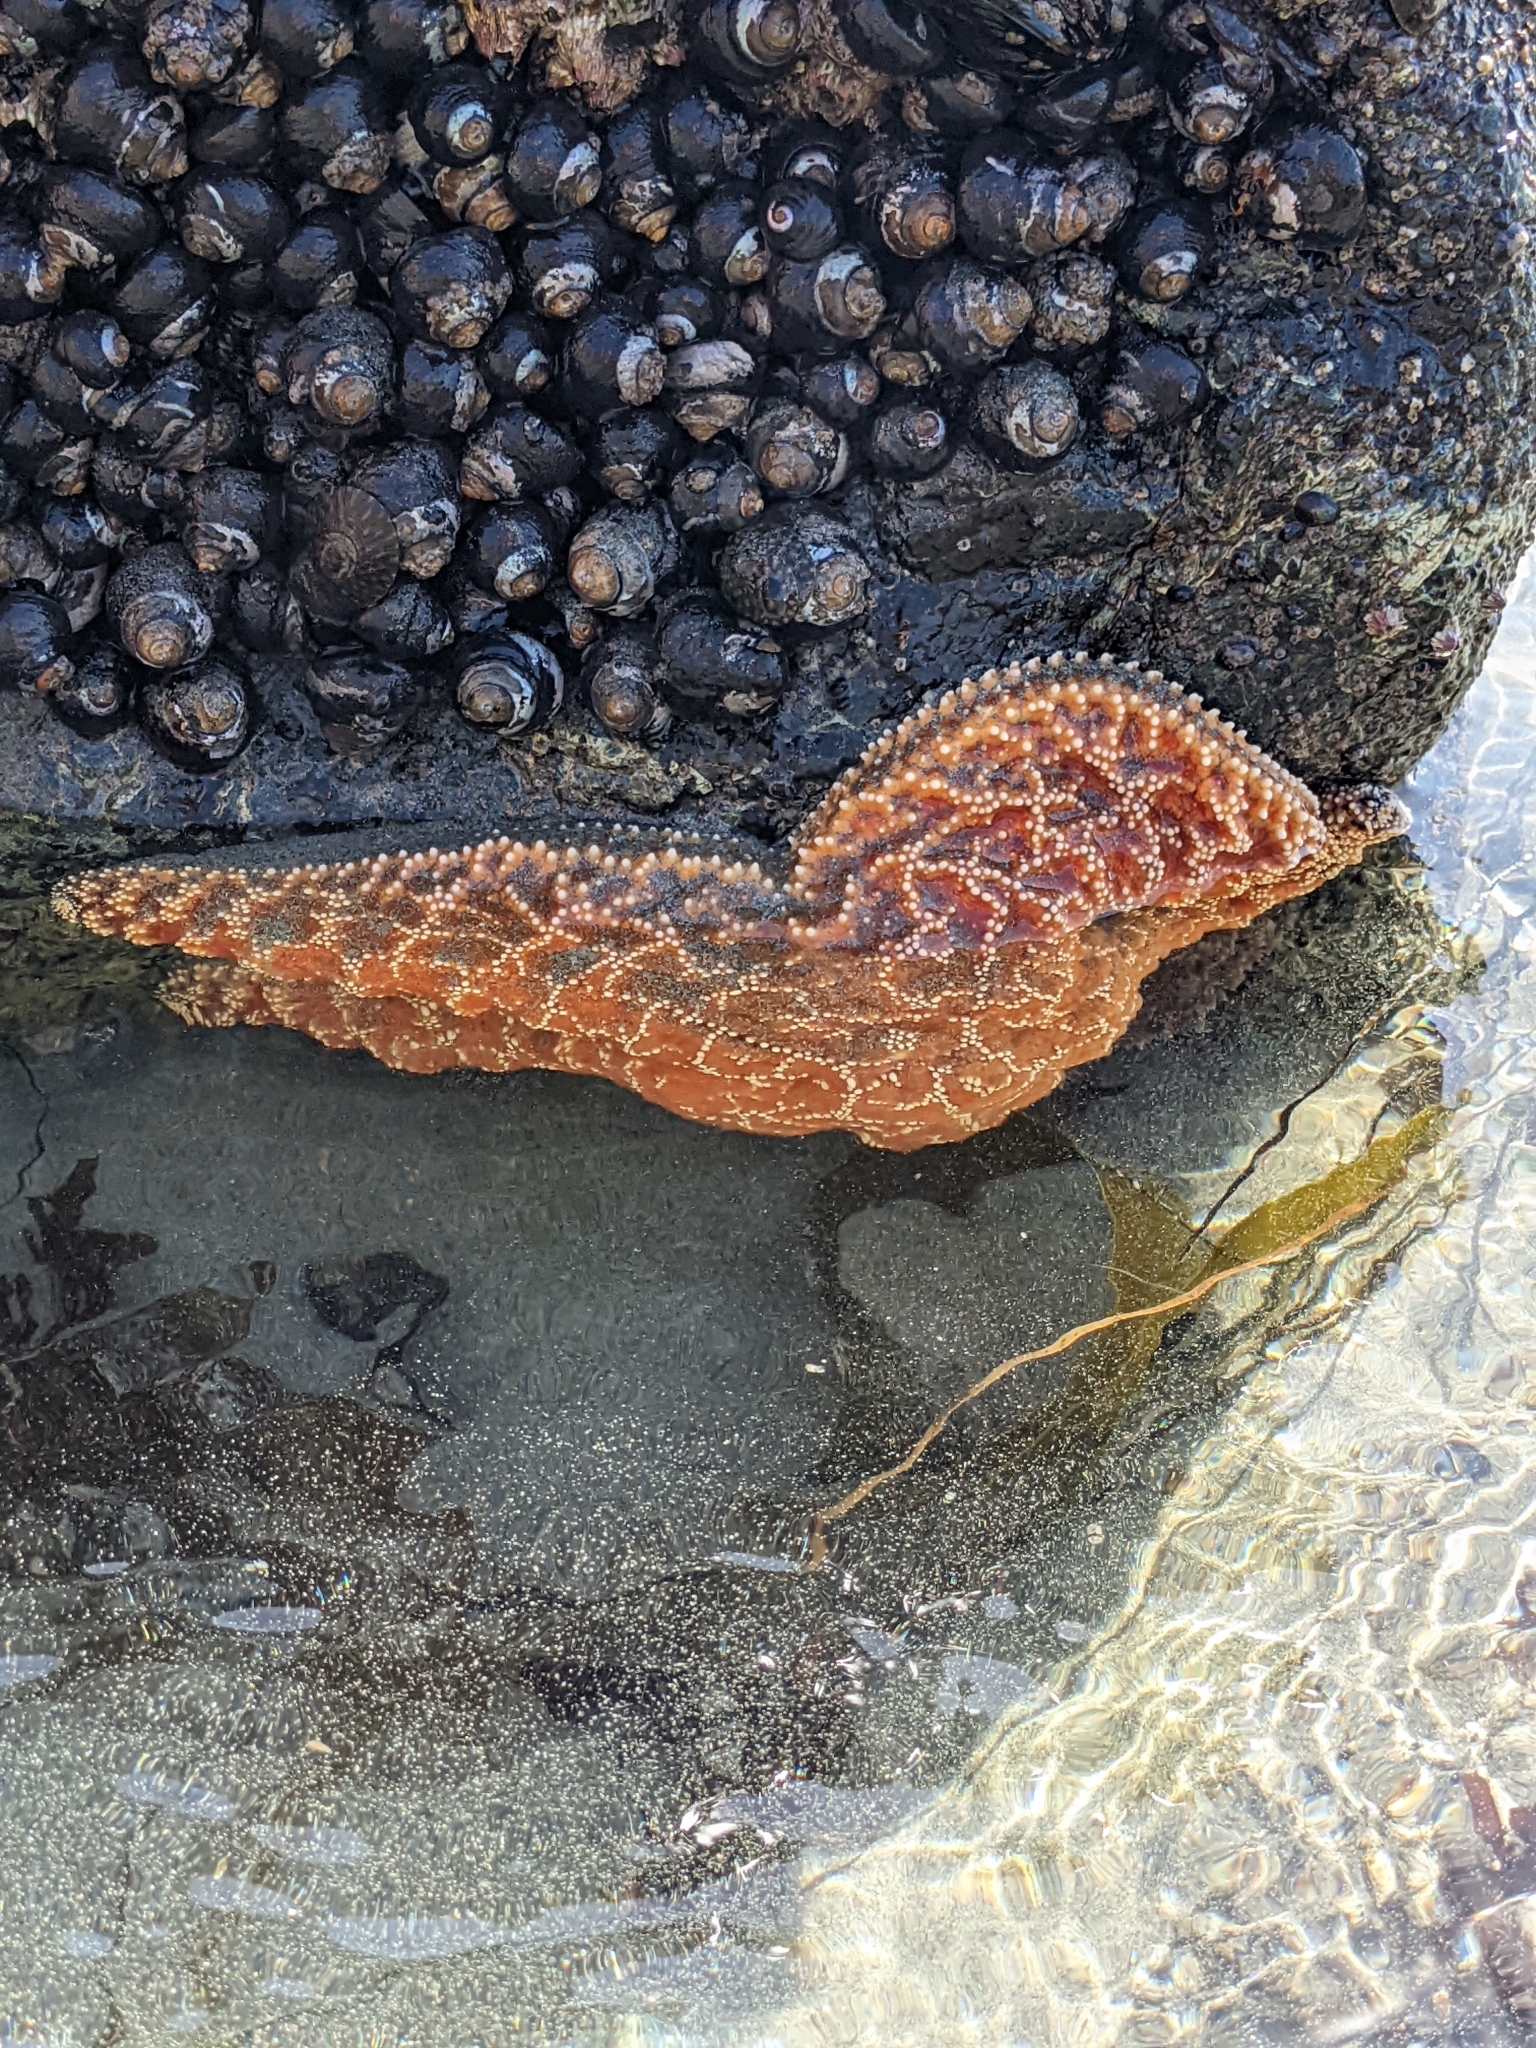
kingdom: Animalia
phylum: Echinodermata
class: Asteroidea
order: Forcipulatida
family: Asteriidae
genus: Pisaster
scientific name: Pisaster ochraceus
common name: Ochre stars
